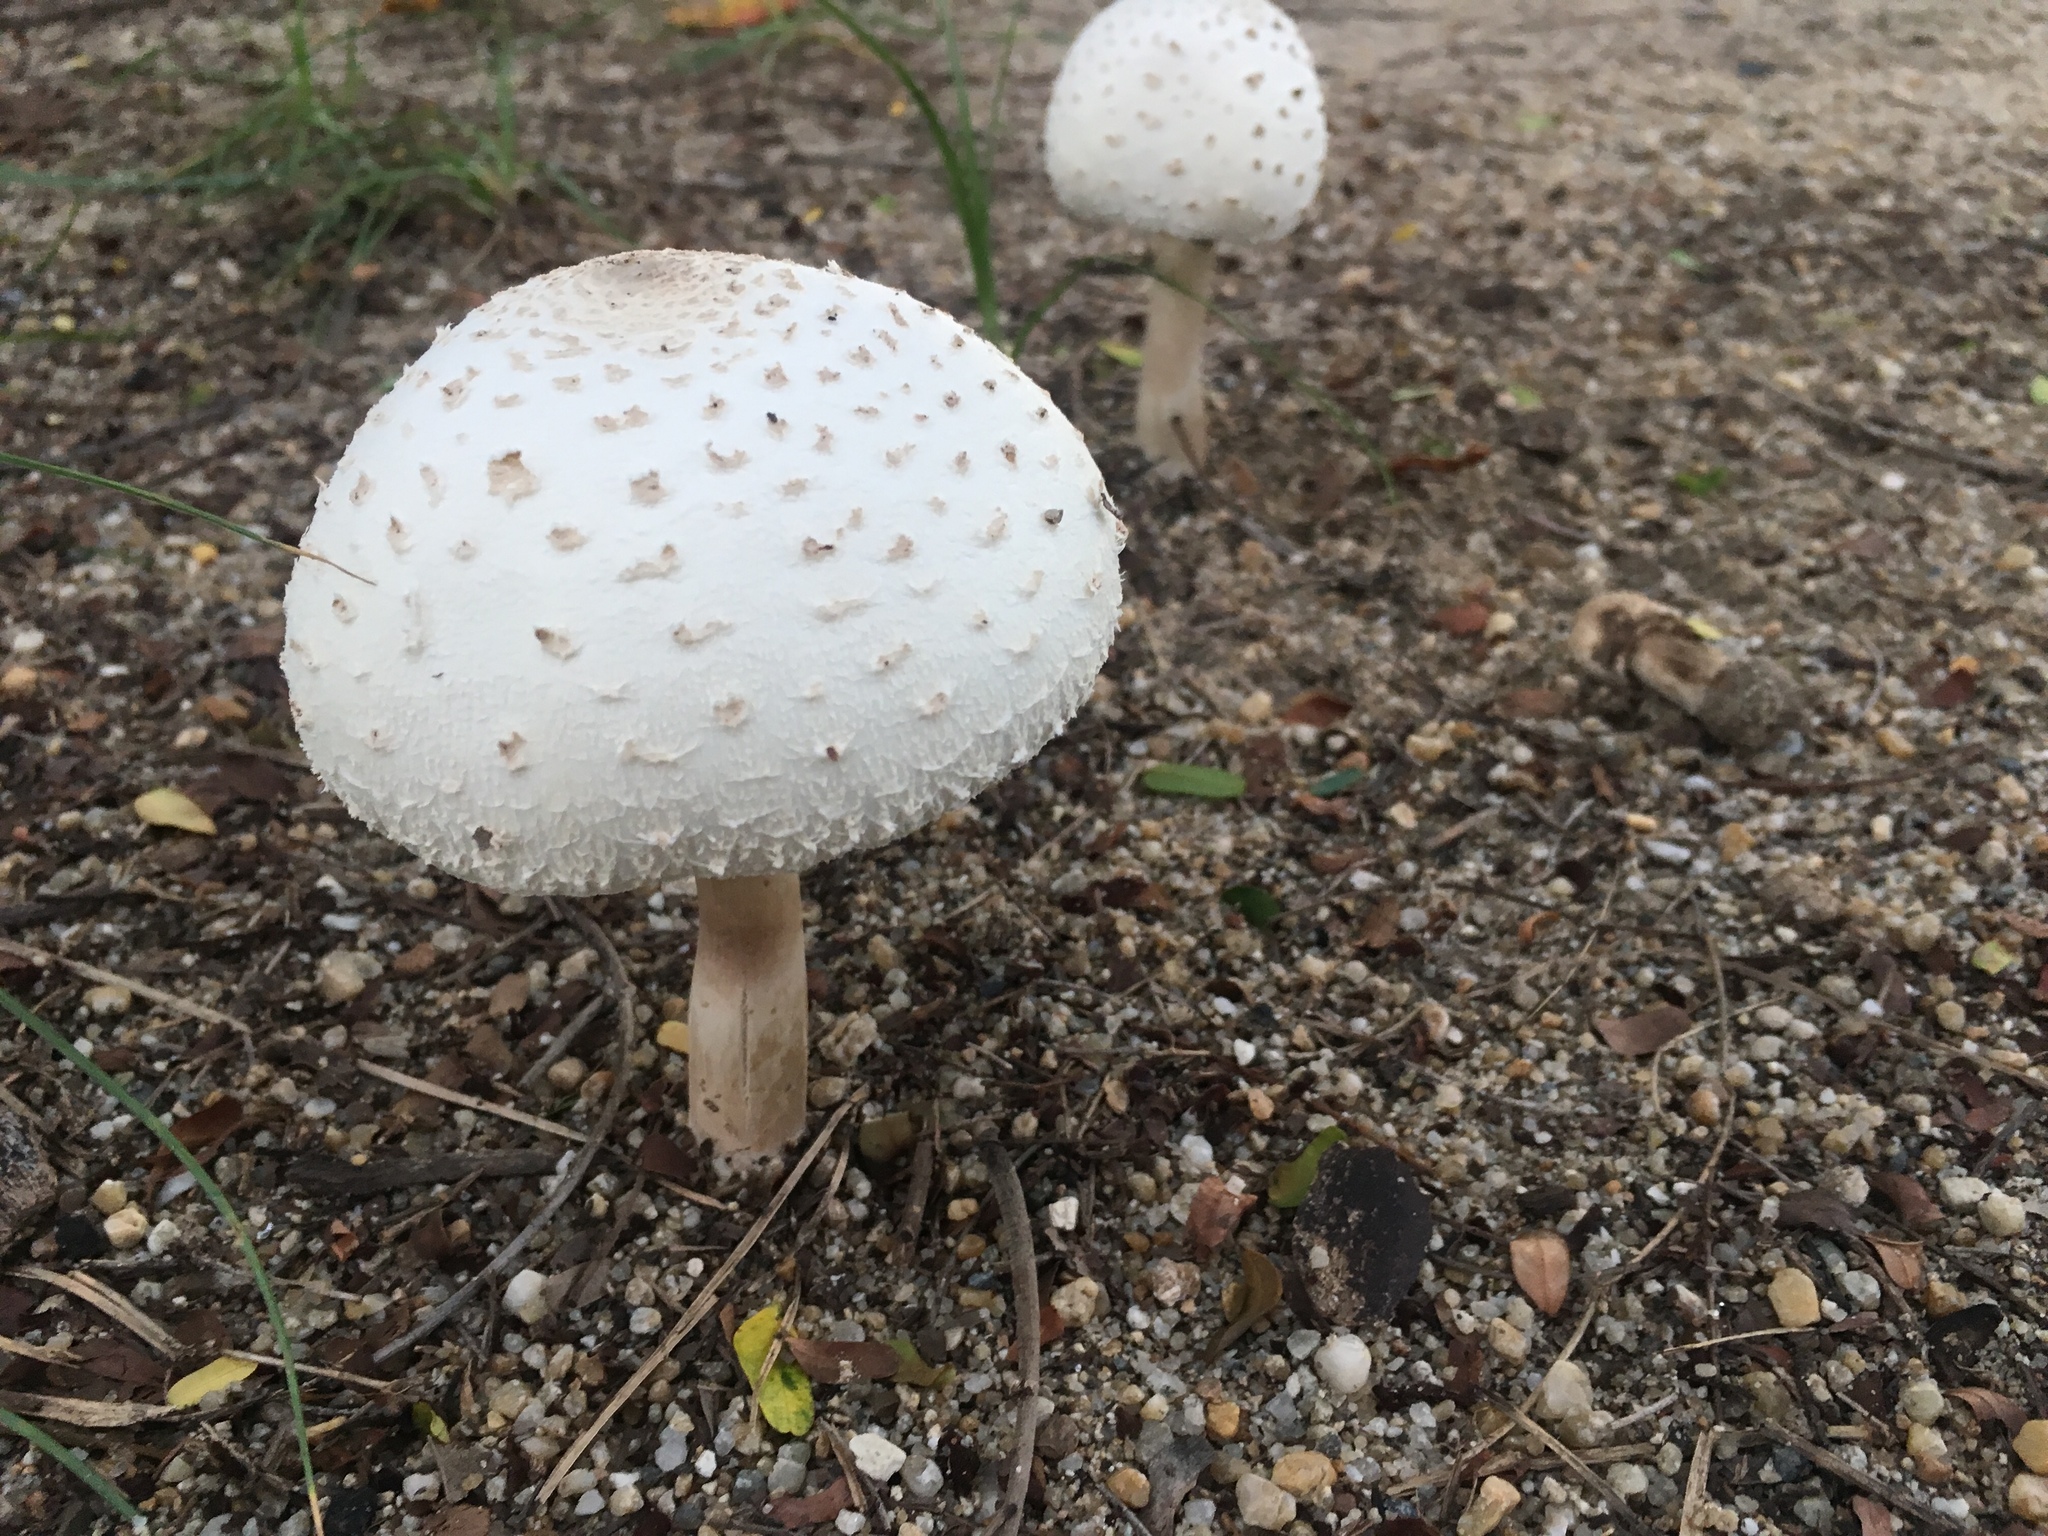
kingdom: Fungi
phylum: Basidiomycota
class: Agaricomycetes
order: Agaricales
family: Agaricaceae
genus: Chlorophyllum
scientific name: Chlorophyllum molybdites
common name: False parasol
